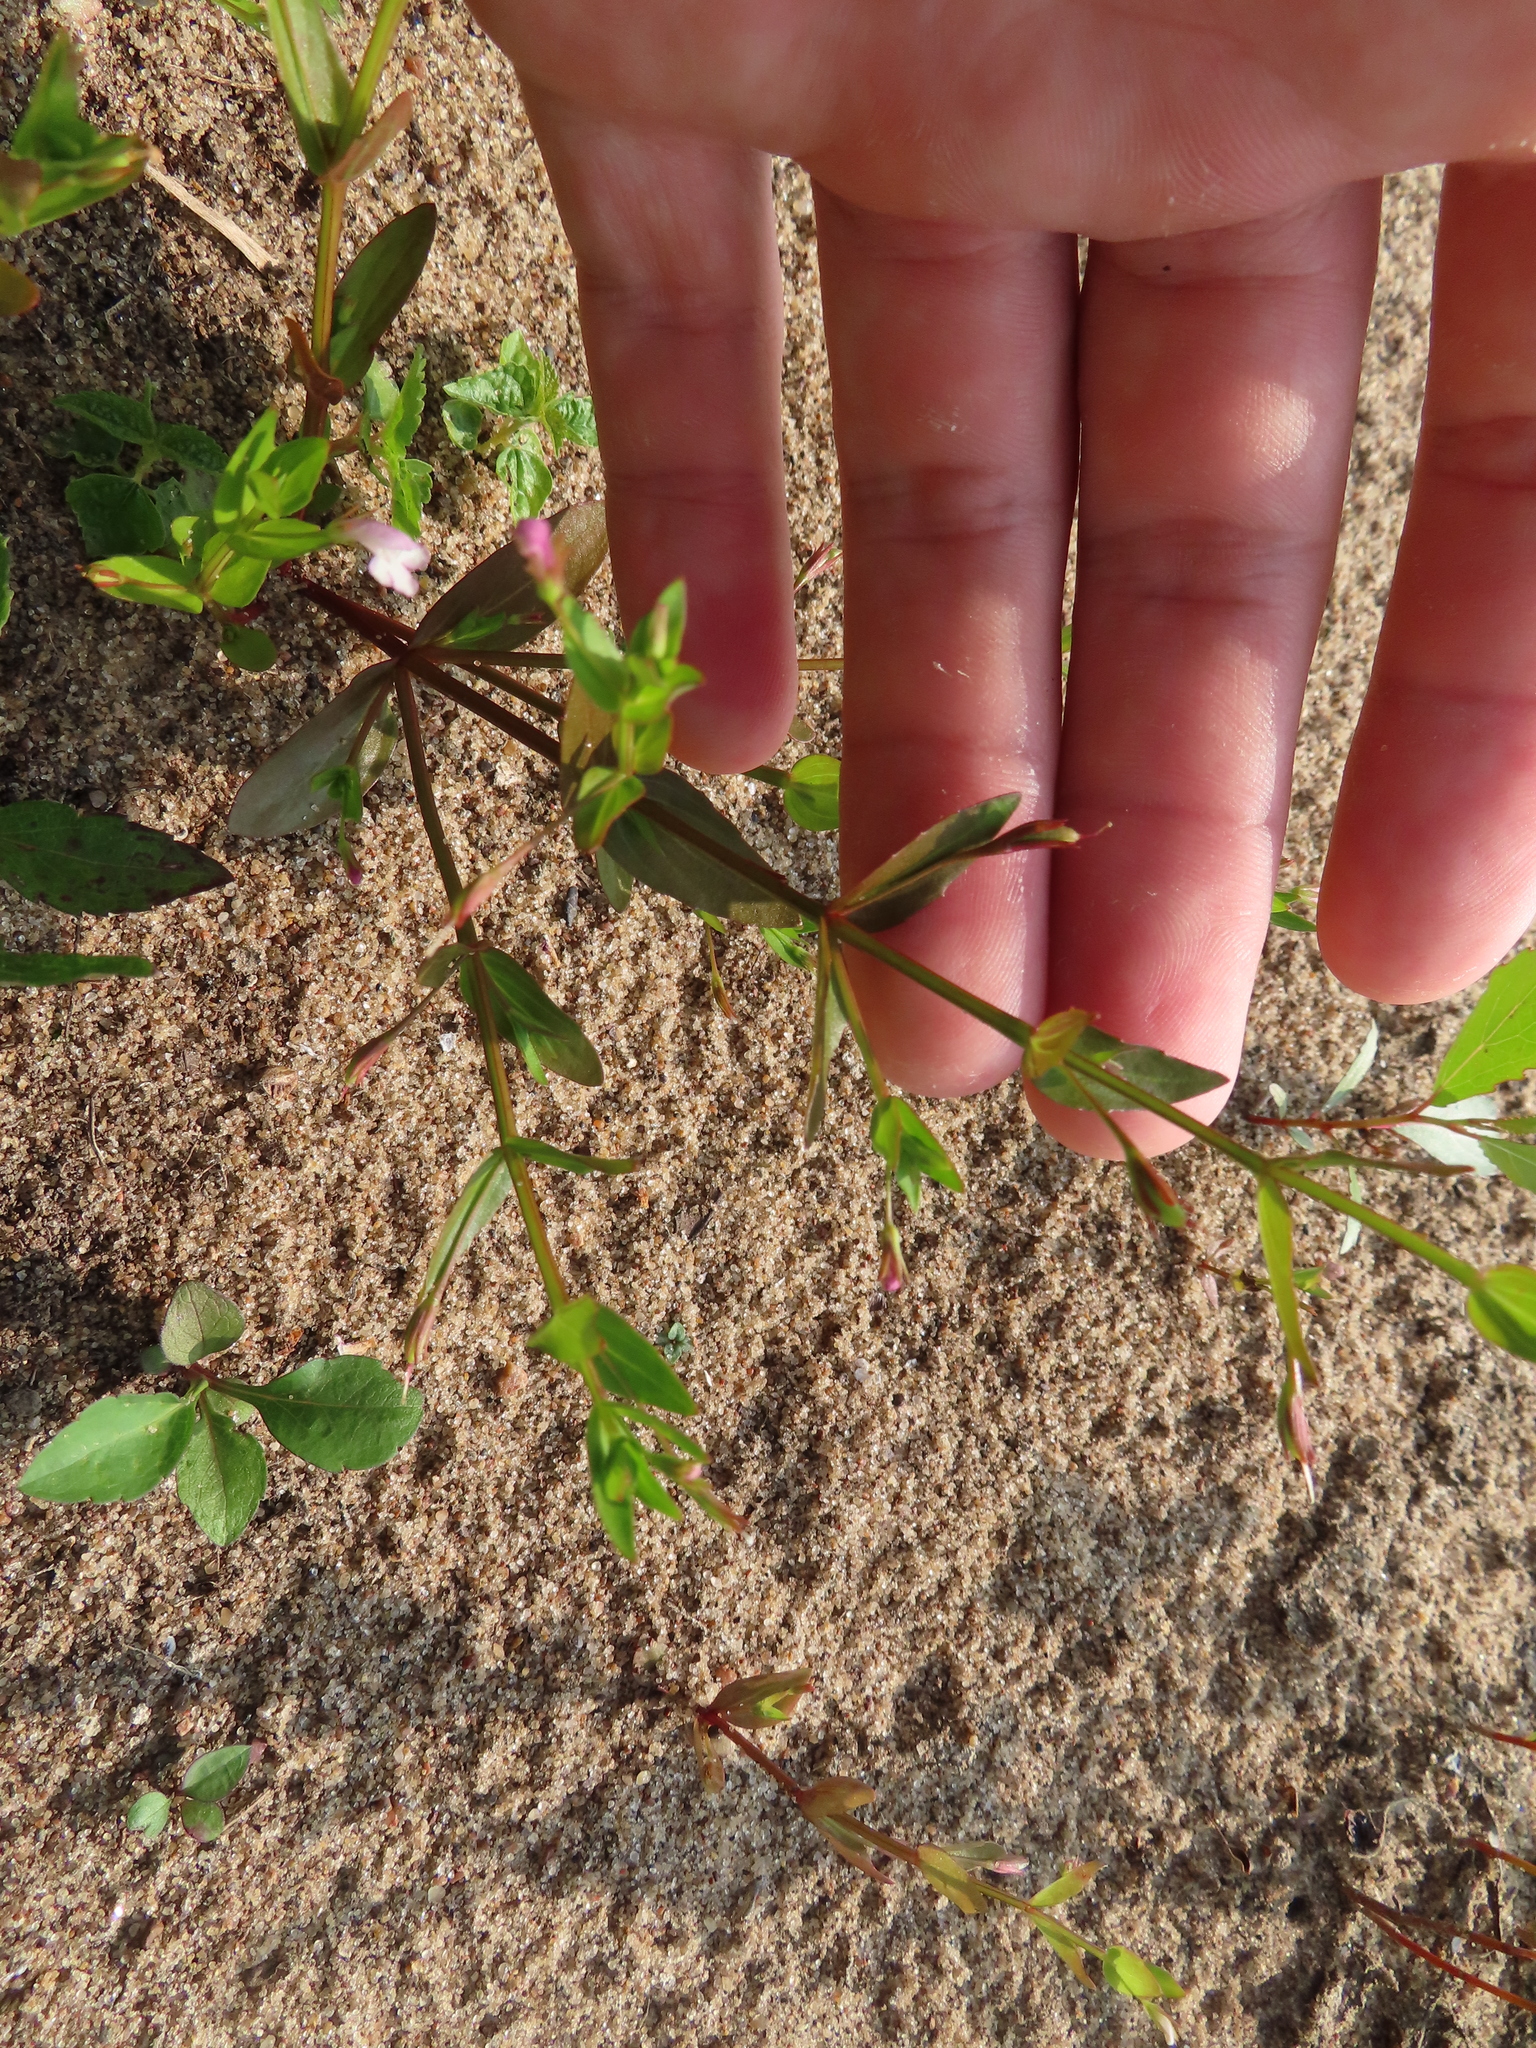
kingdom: Plantae
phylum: Tracheophyta
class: Magnoliopsida
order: Lamiales
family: Linderniaceae
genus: Lindernia
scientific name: Lindernia dubia
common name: Annual false pimpernel
